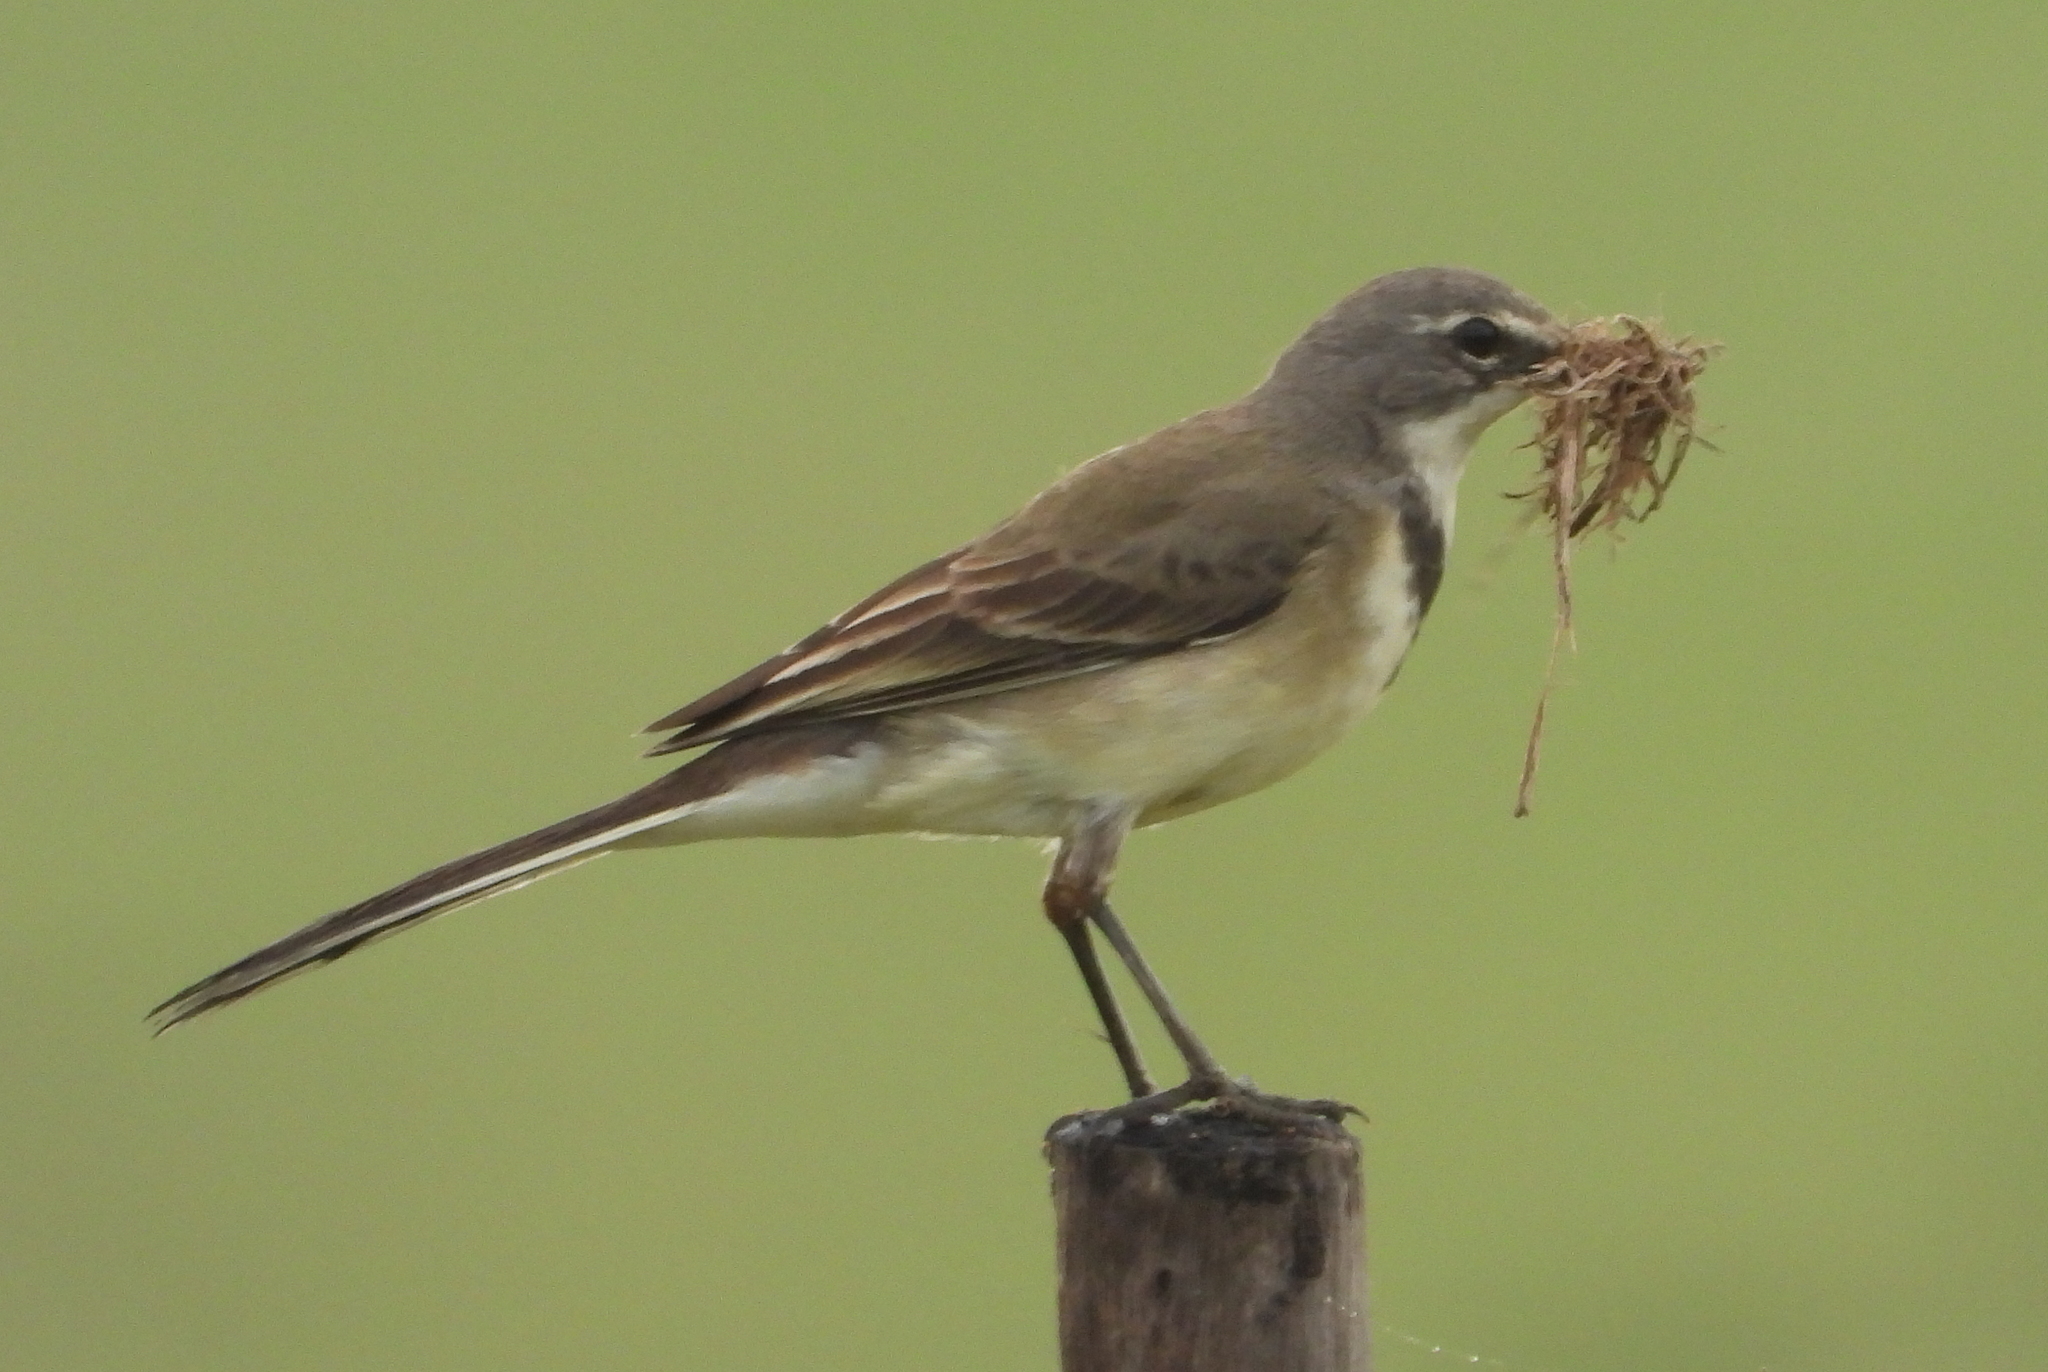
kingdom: Animalia
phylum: Chordata
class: Aves
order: Passeriformes
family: Motacillidae
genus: Motacilla
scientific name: Motacilla capensis
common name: Cape wagtail
